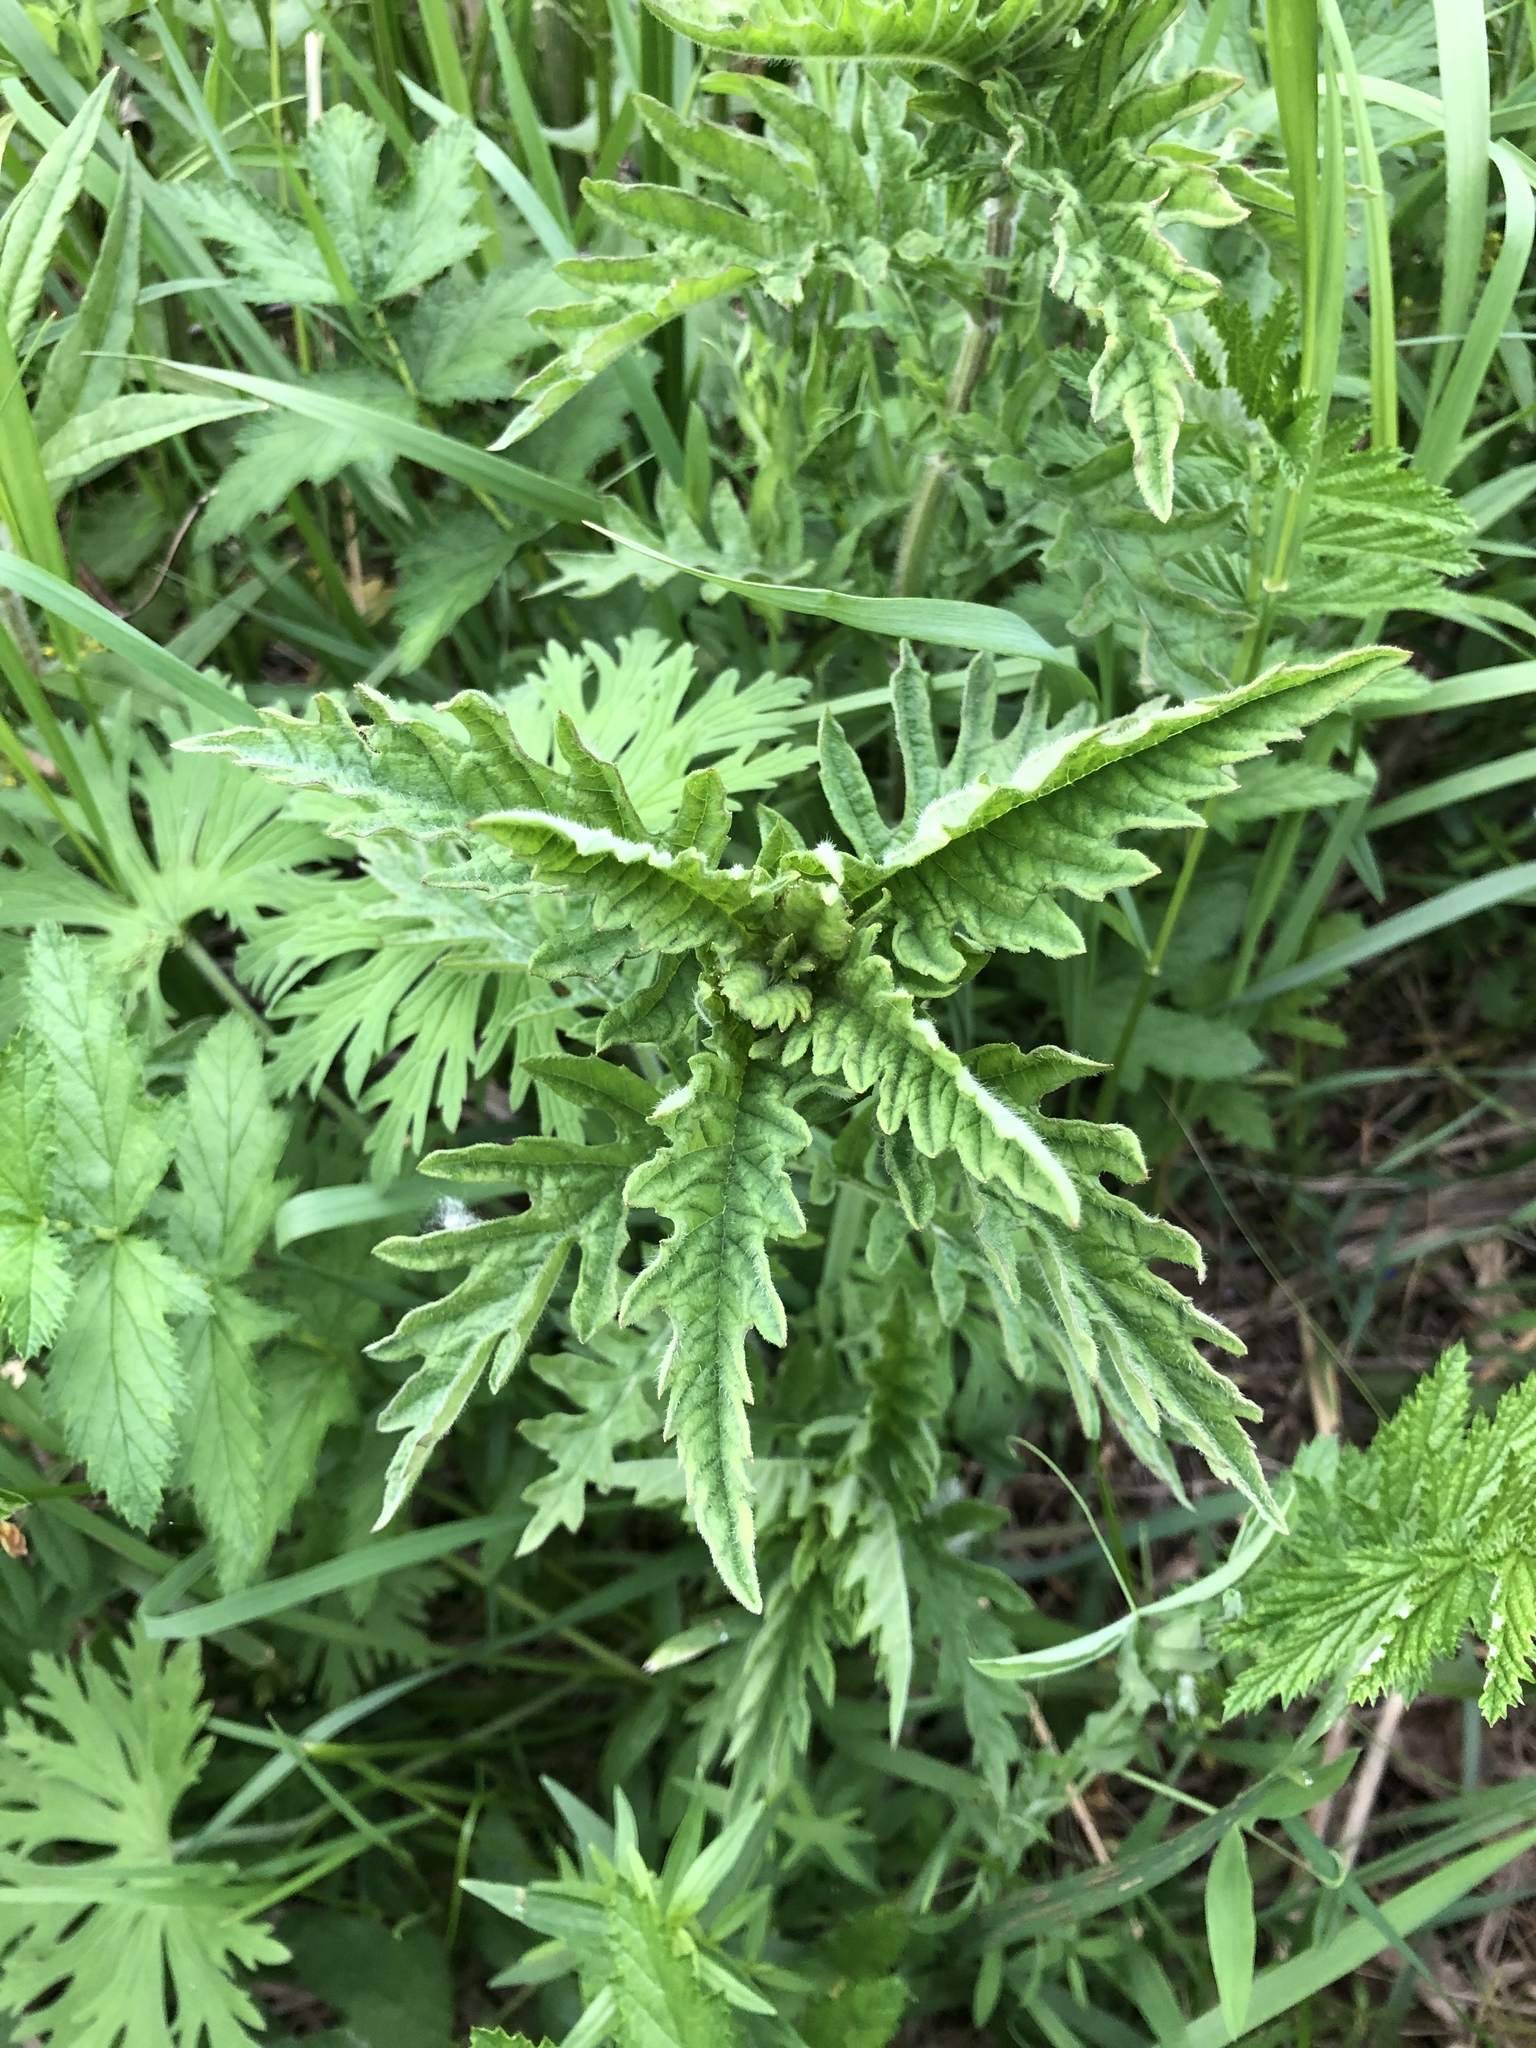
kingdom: Plantae
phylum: Tracheophyta
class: Magnoliopsida
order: Lamiales
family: Lamiaceae
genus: Lycopus
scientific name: Lycopus europaeus
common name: European bugleweed
